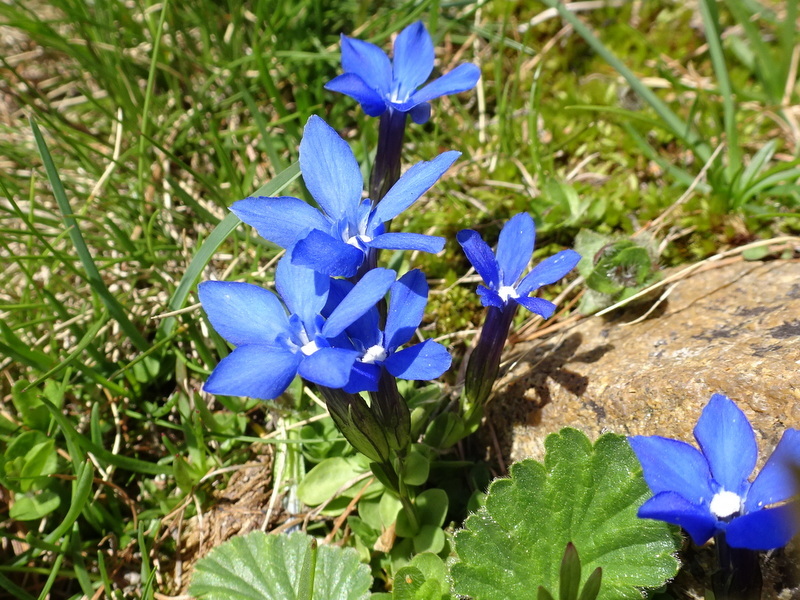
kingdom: Plantae
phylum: Tracheophyta
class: Magnoliopsida
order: Gentianales
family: Gentianaceae
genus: Gentiana
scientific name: Gentiana brachyphylla
